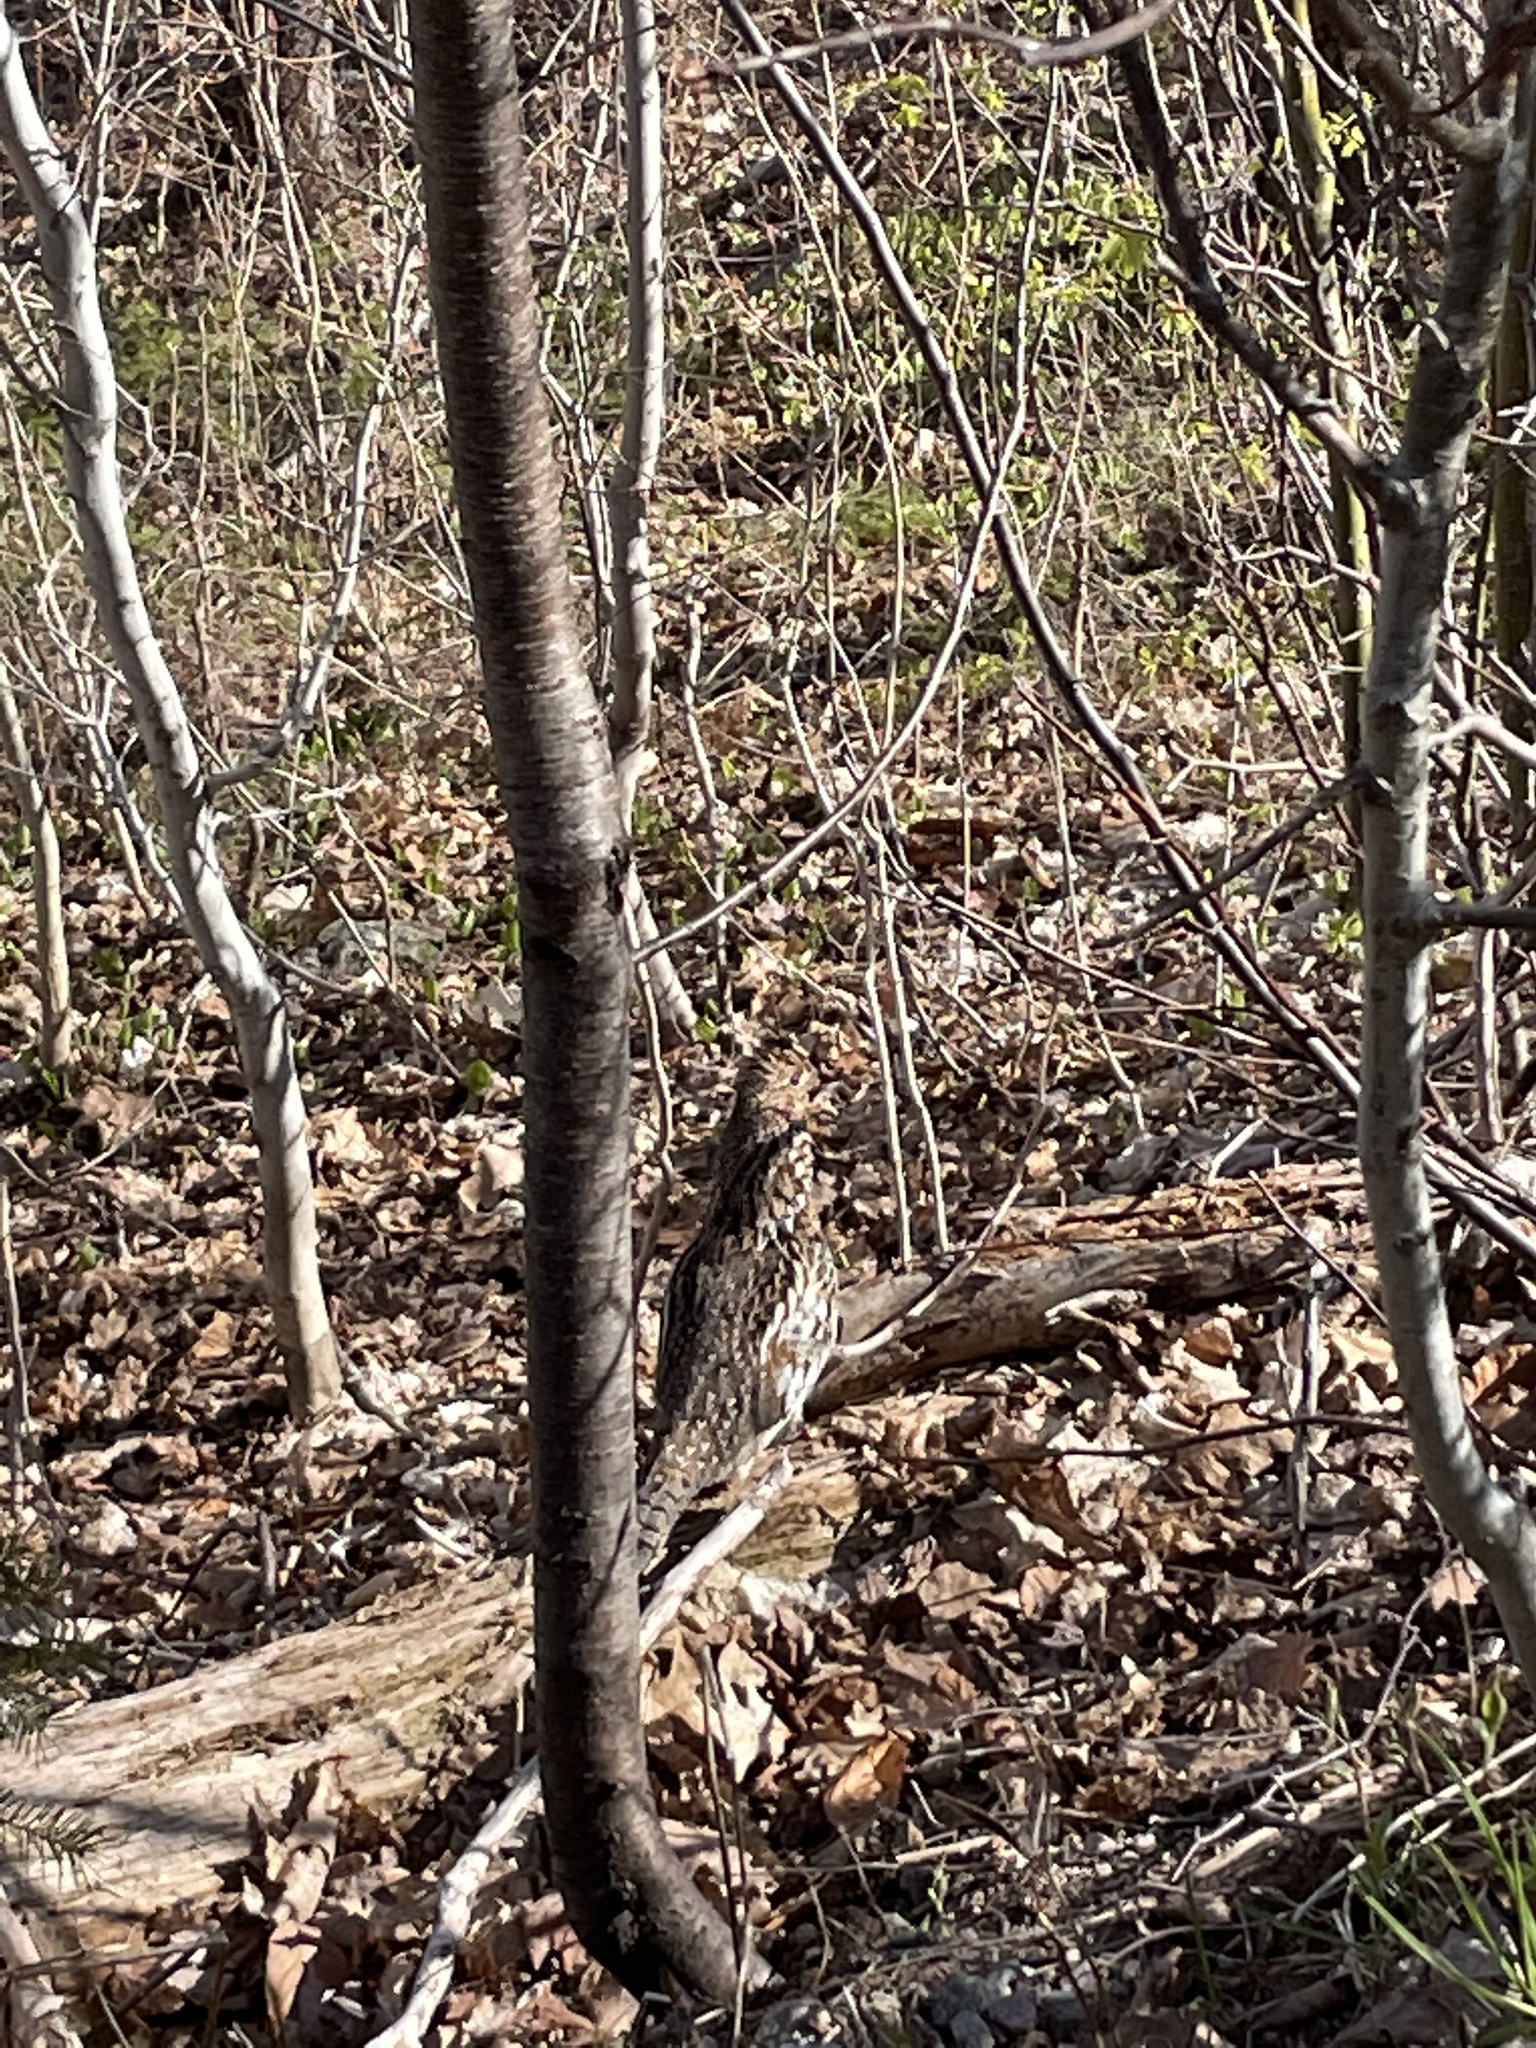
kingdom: Animalia
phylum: Chordata
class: Aves
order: Galliformes
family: Phasianidae
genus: Bonasa
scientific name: Bonasa umbellus
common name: Ruffed grouse
